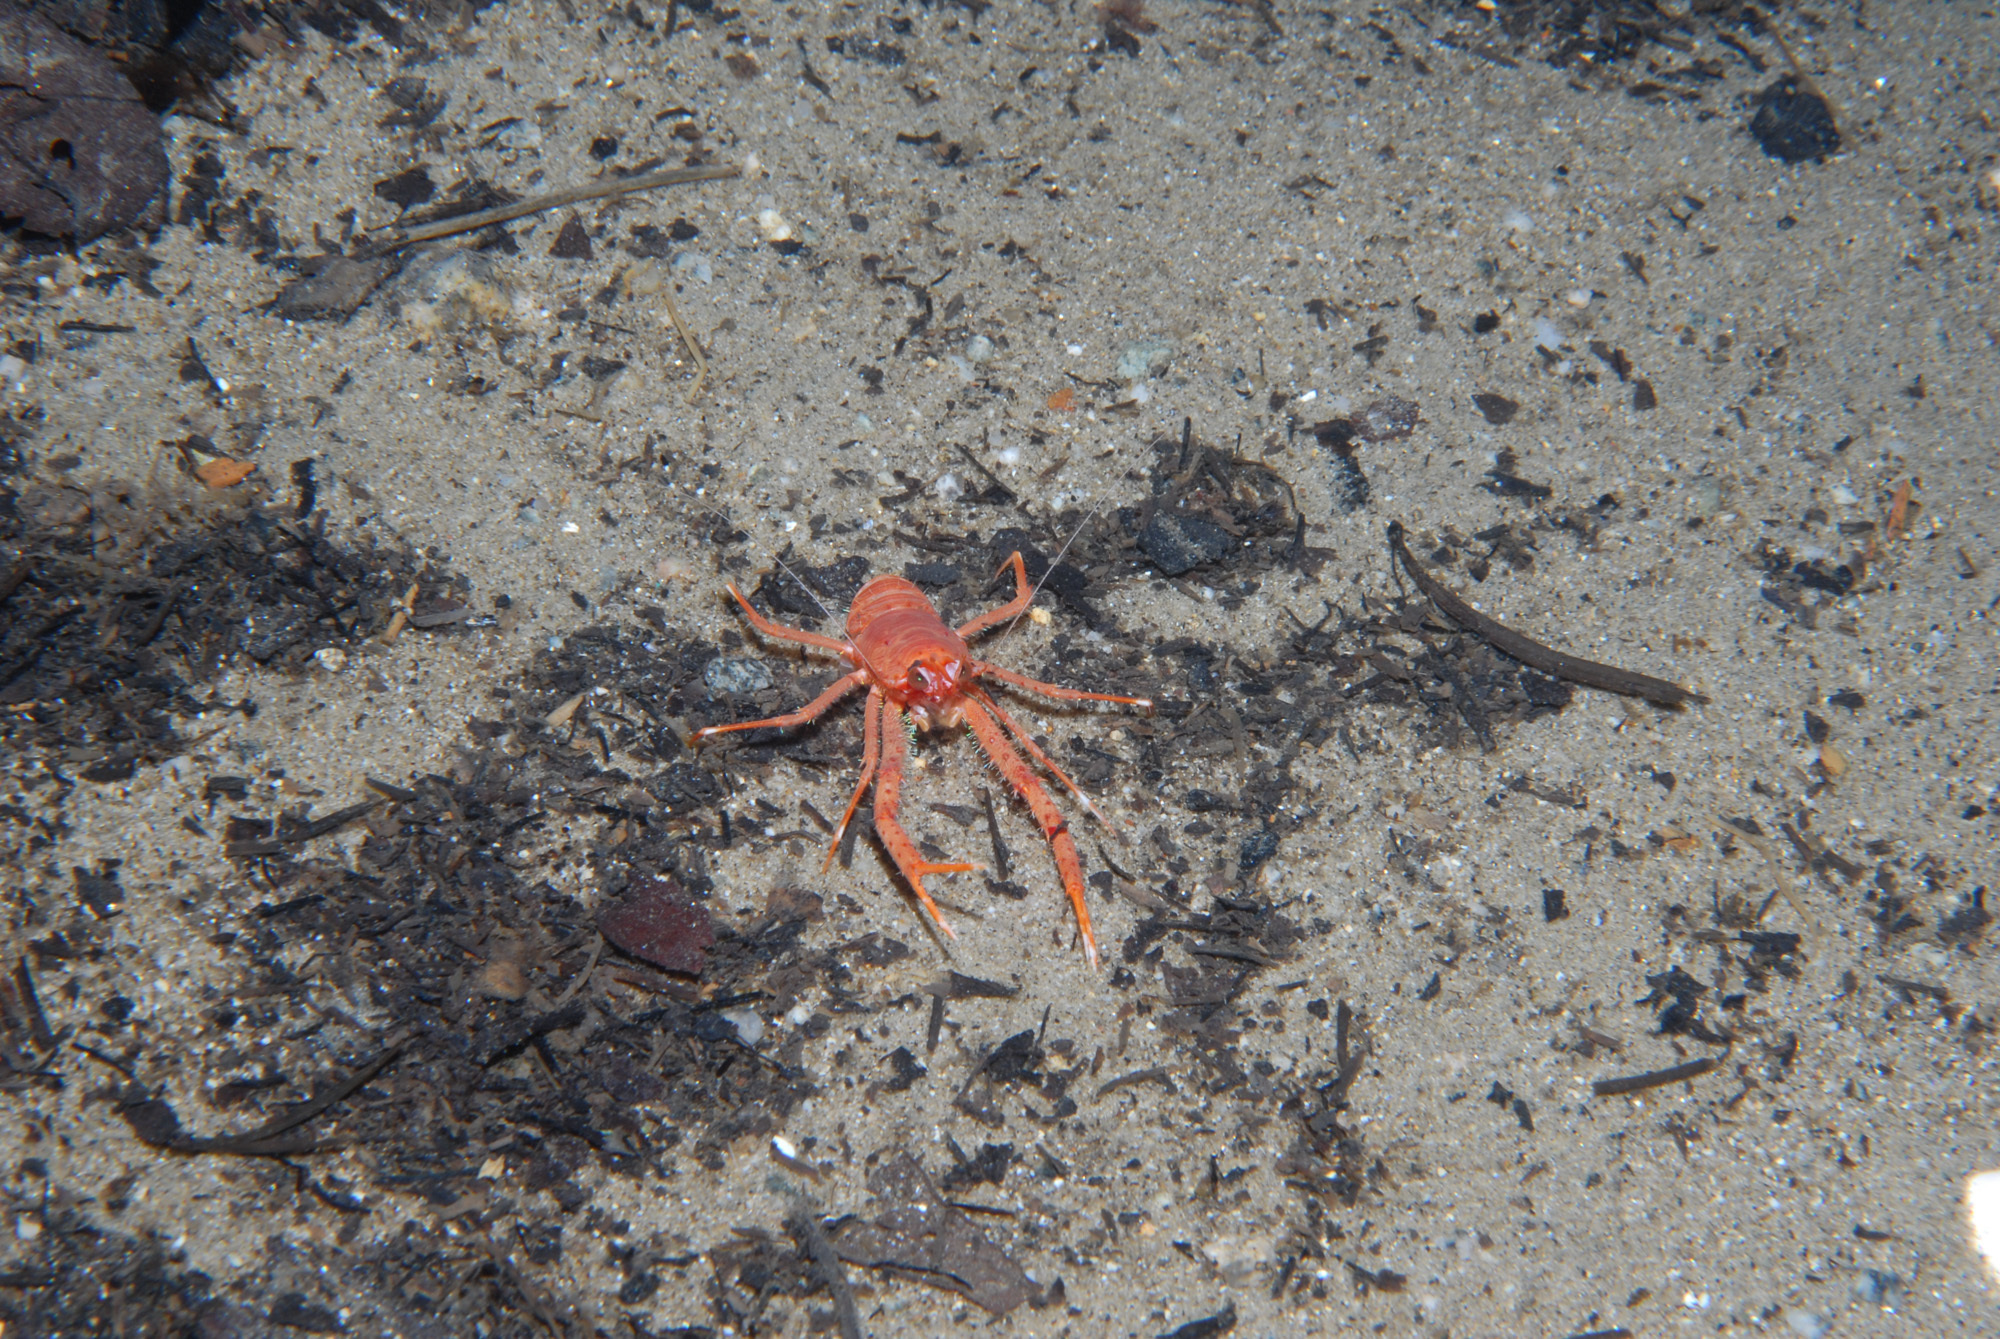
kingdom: Animalia
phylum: Arthropoda
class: Malacostraca
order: Decapoda
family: Munididae
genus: Munida
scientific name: Munida rugosa
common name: Rugose squat lobster
